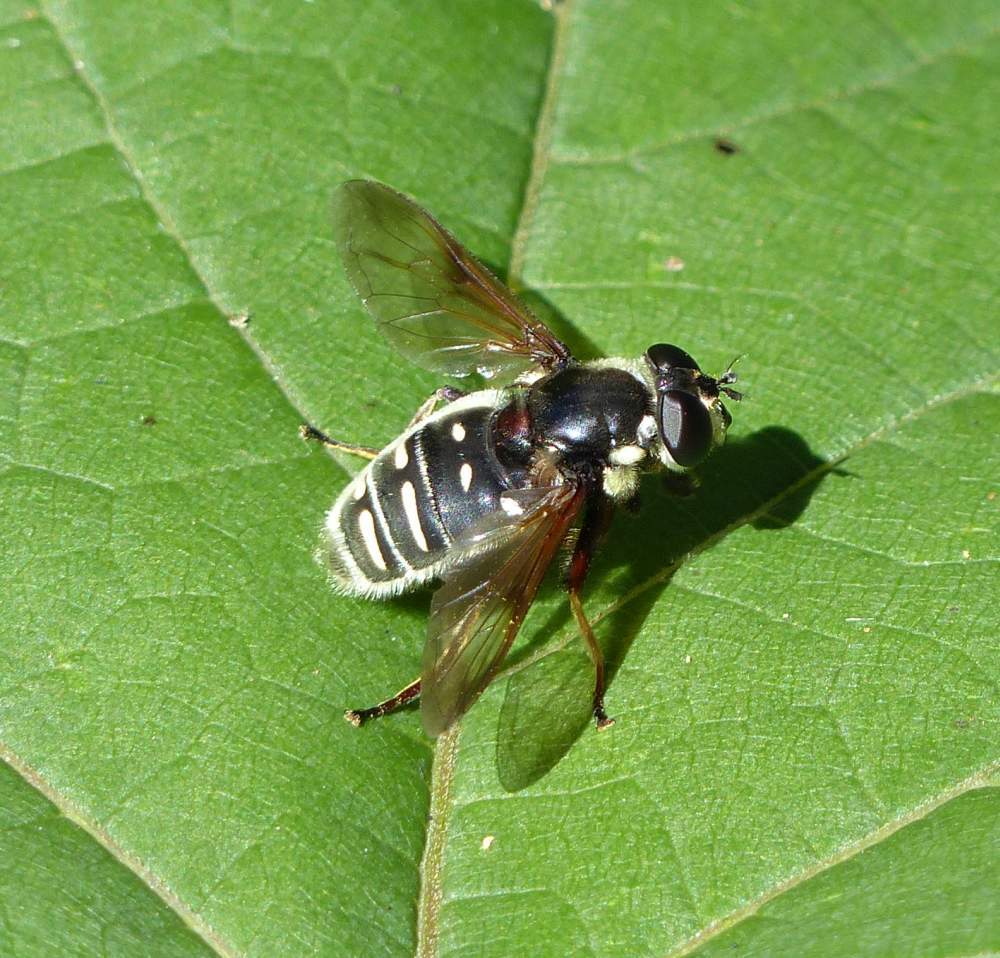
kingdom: Animalia
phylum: Arthropoda
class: Insecta
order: Diptera
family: Syrphidae
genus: Sericomyia
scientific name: Sericomyia militaris
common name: Narrow-banded pond fly
